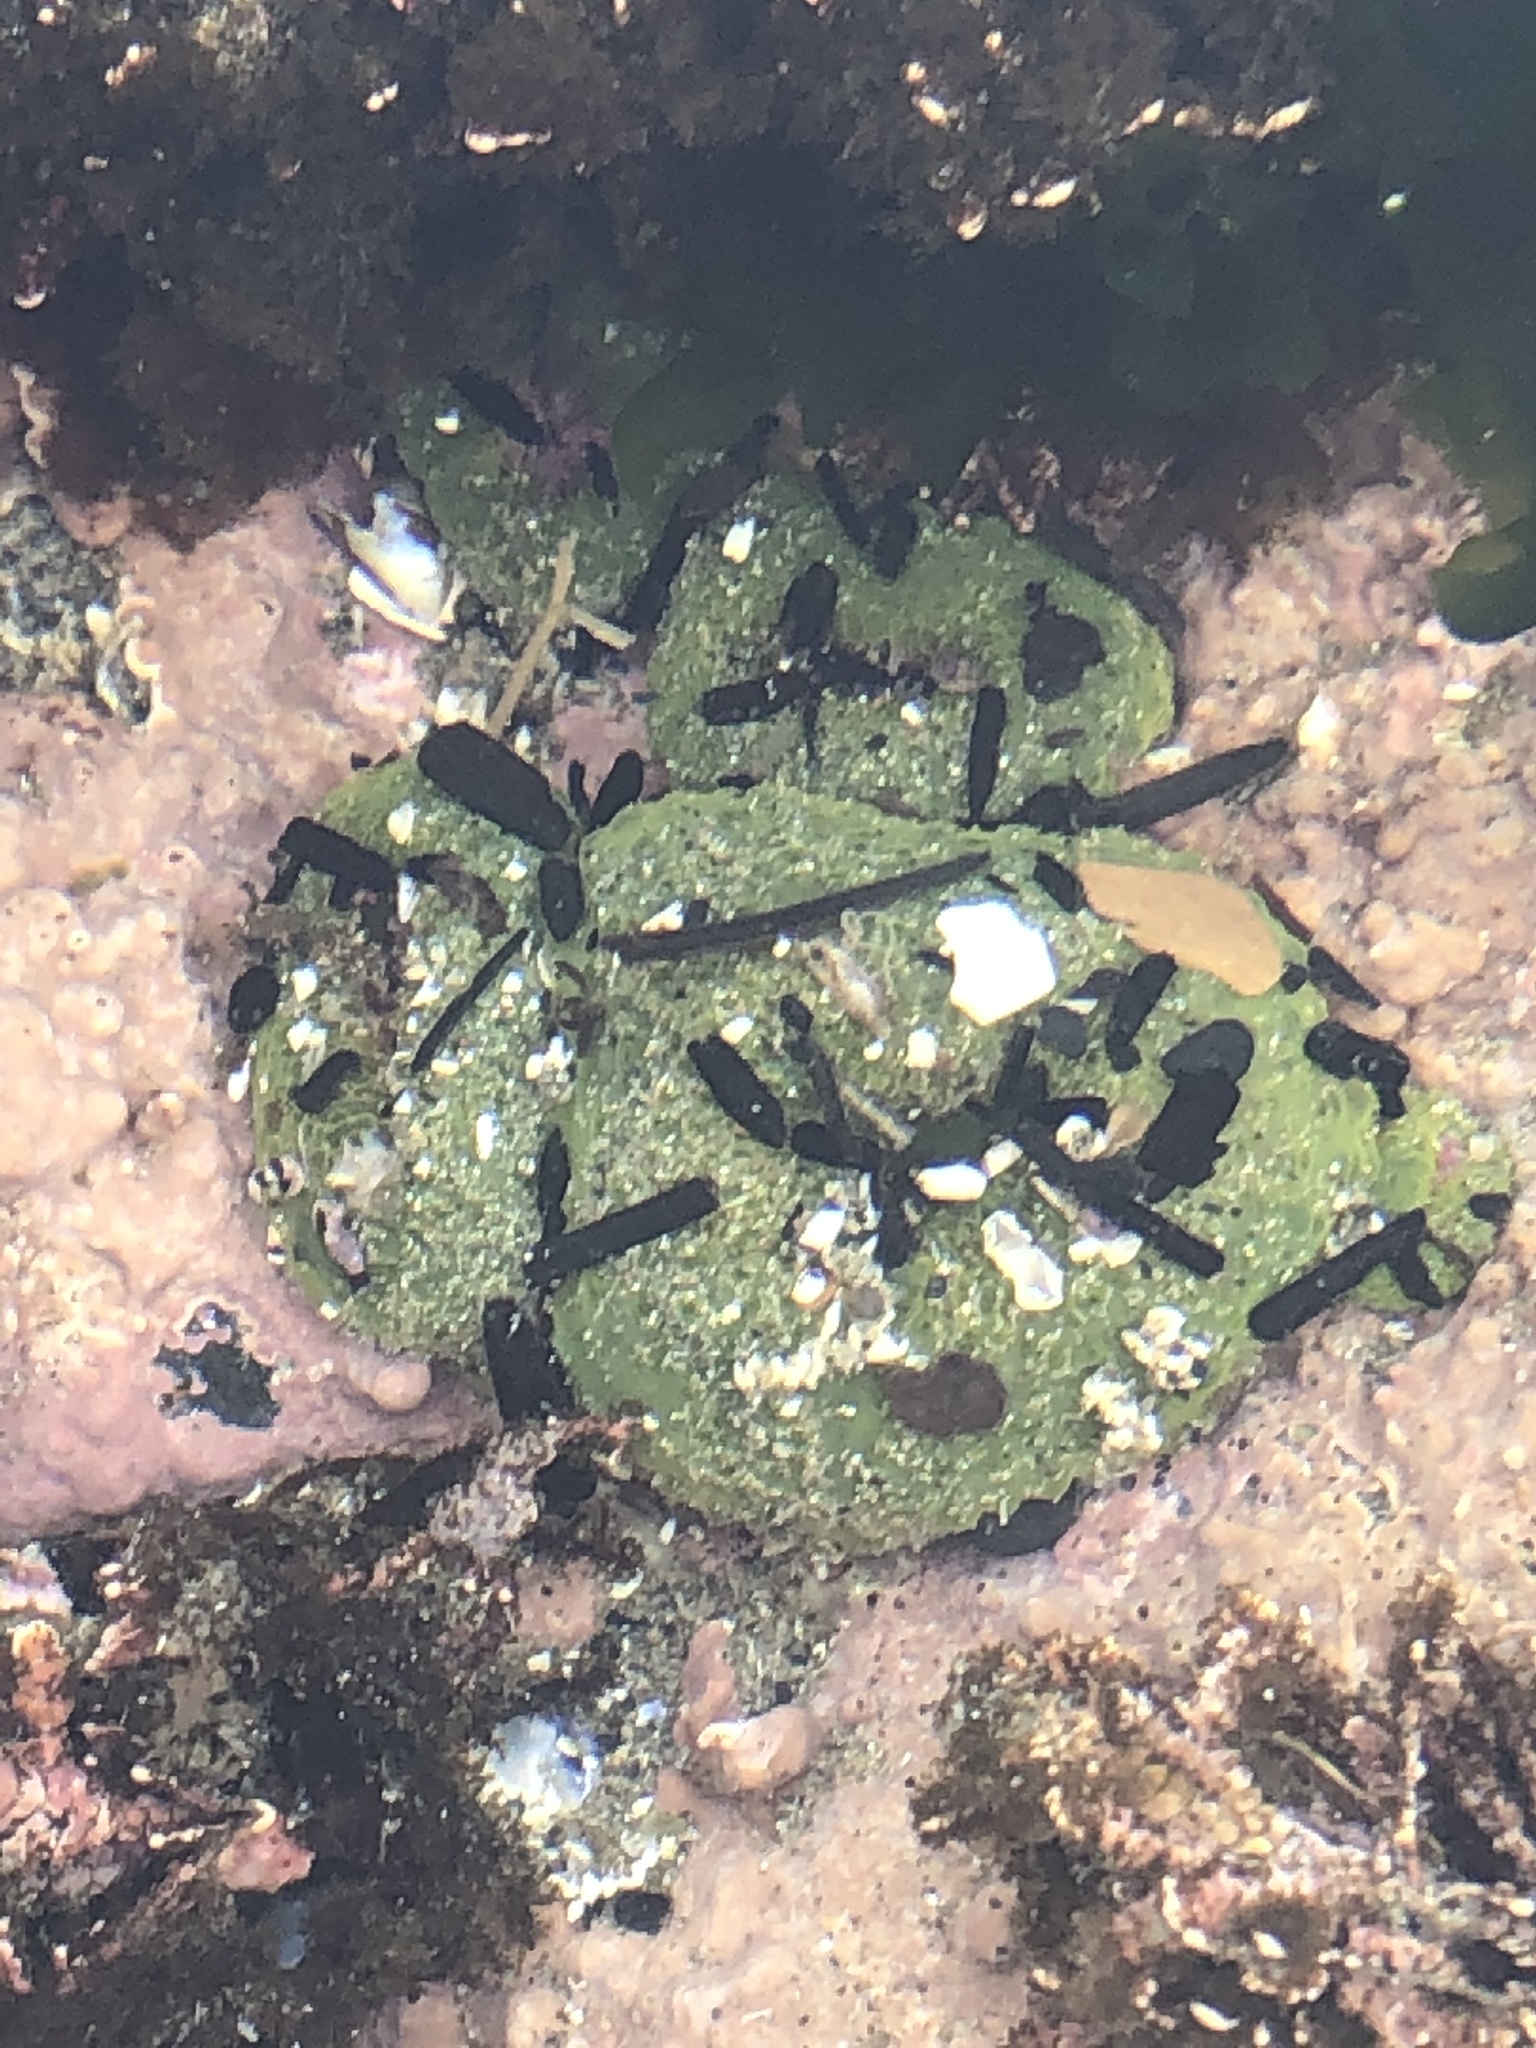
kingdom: Animalia
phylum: Cnidaria
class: Anthozoa
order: Actiniaria
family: Actiniidae
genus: Anthopleura
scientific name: Anthopleura elegantissima
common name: Clonal anemone
